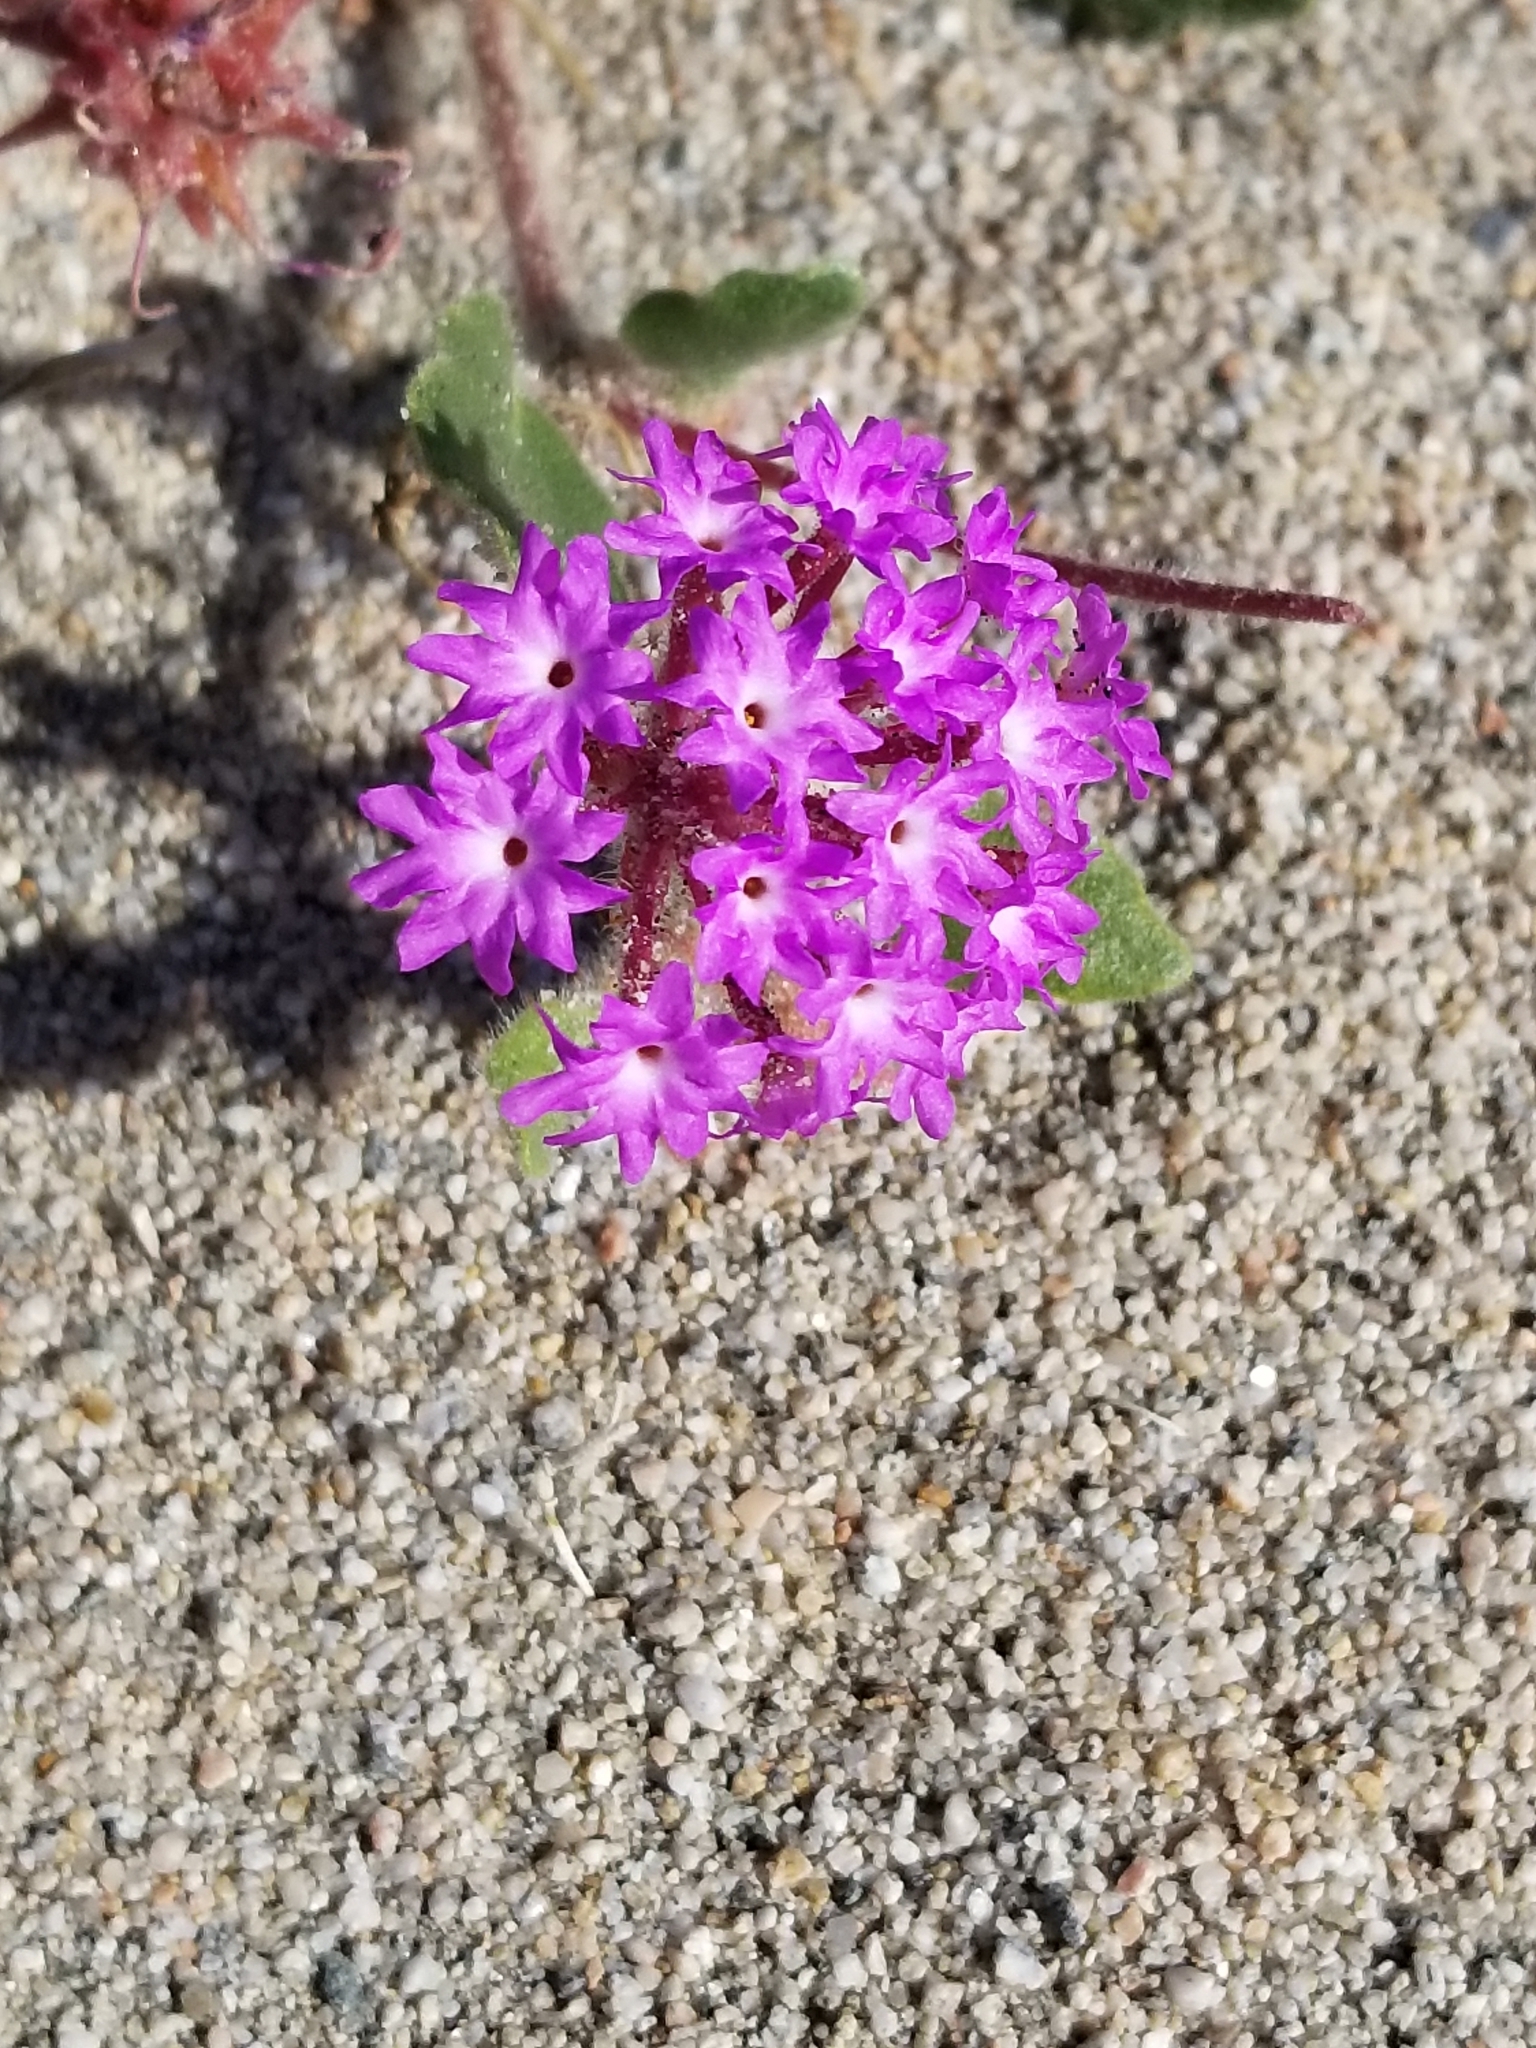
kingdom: Plantae
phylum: Tracheophyta
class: Magnoliopsida
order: Caryophyllales
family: Nyctaginaceae
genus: Abronia
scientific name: Abronia villosa
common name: Desert sand-verbena
